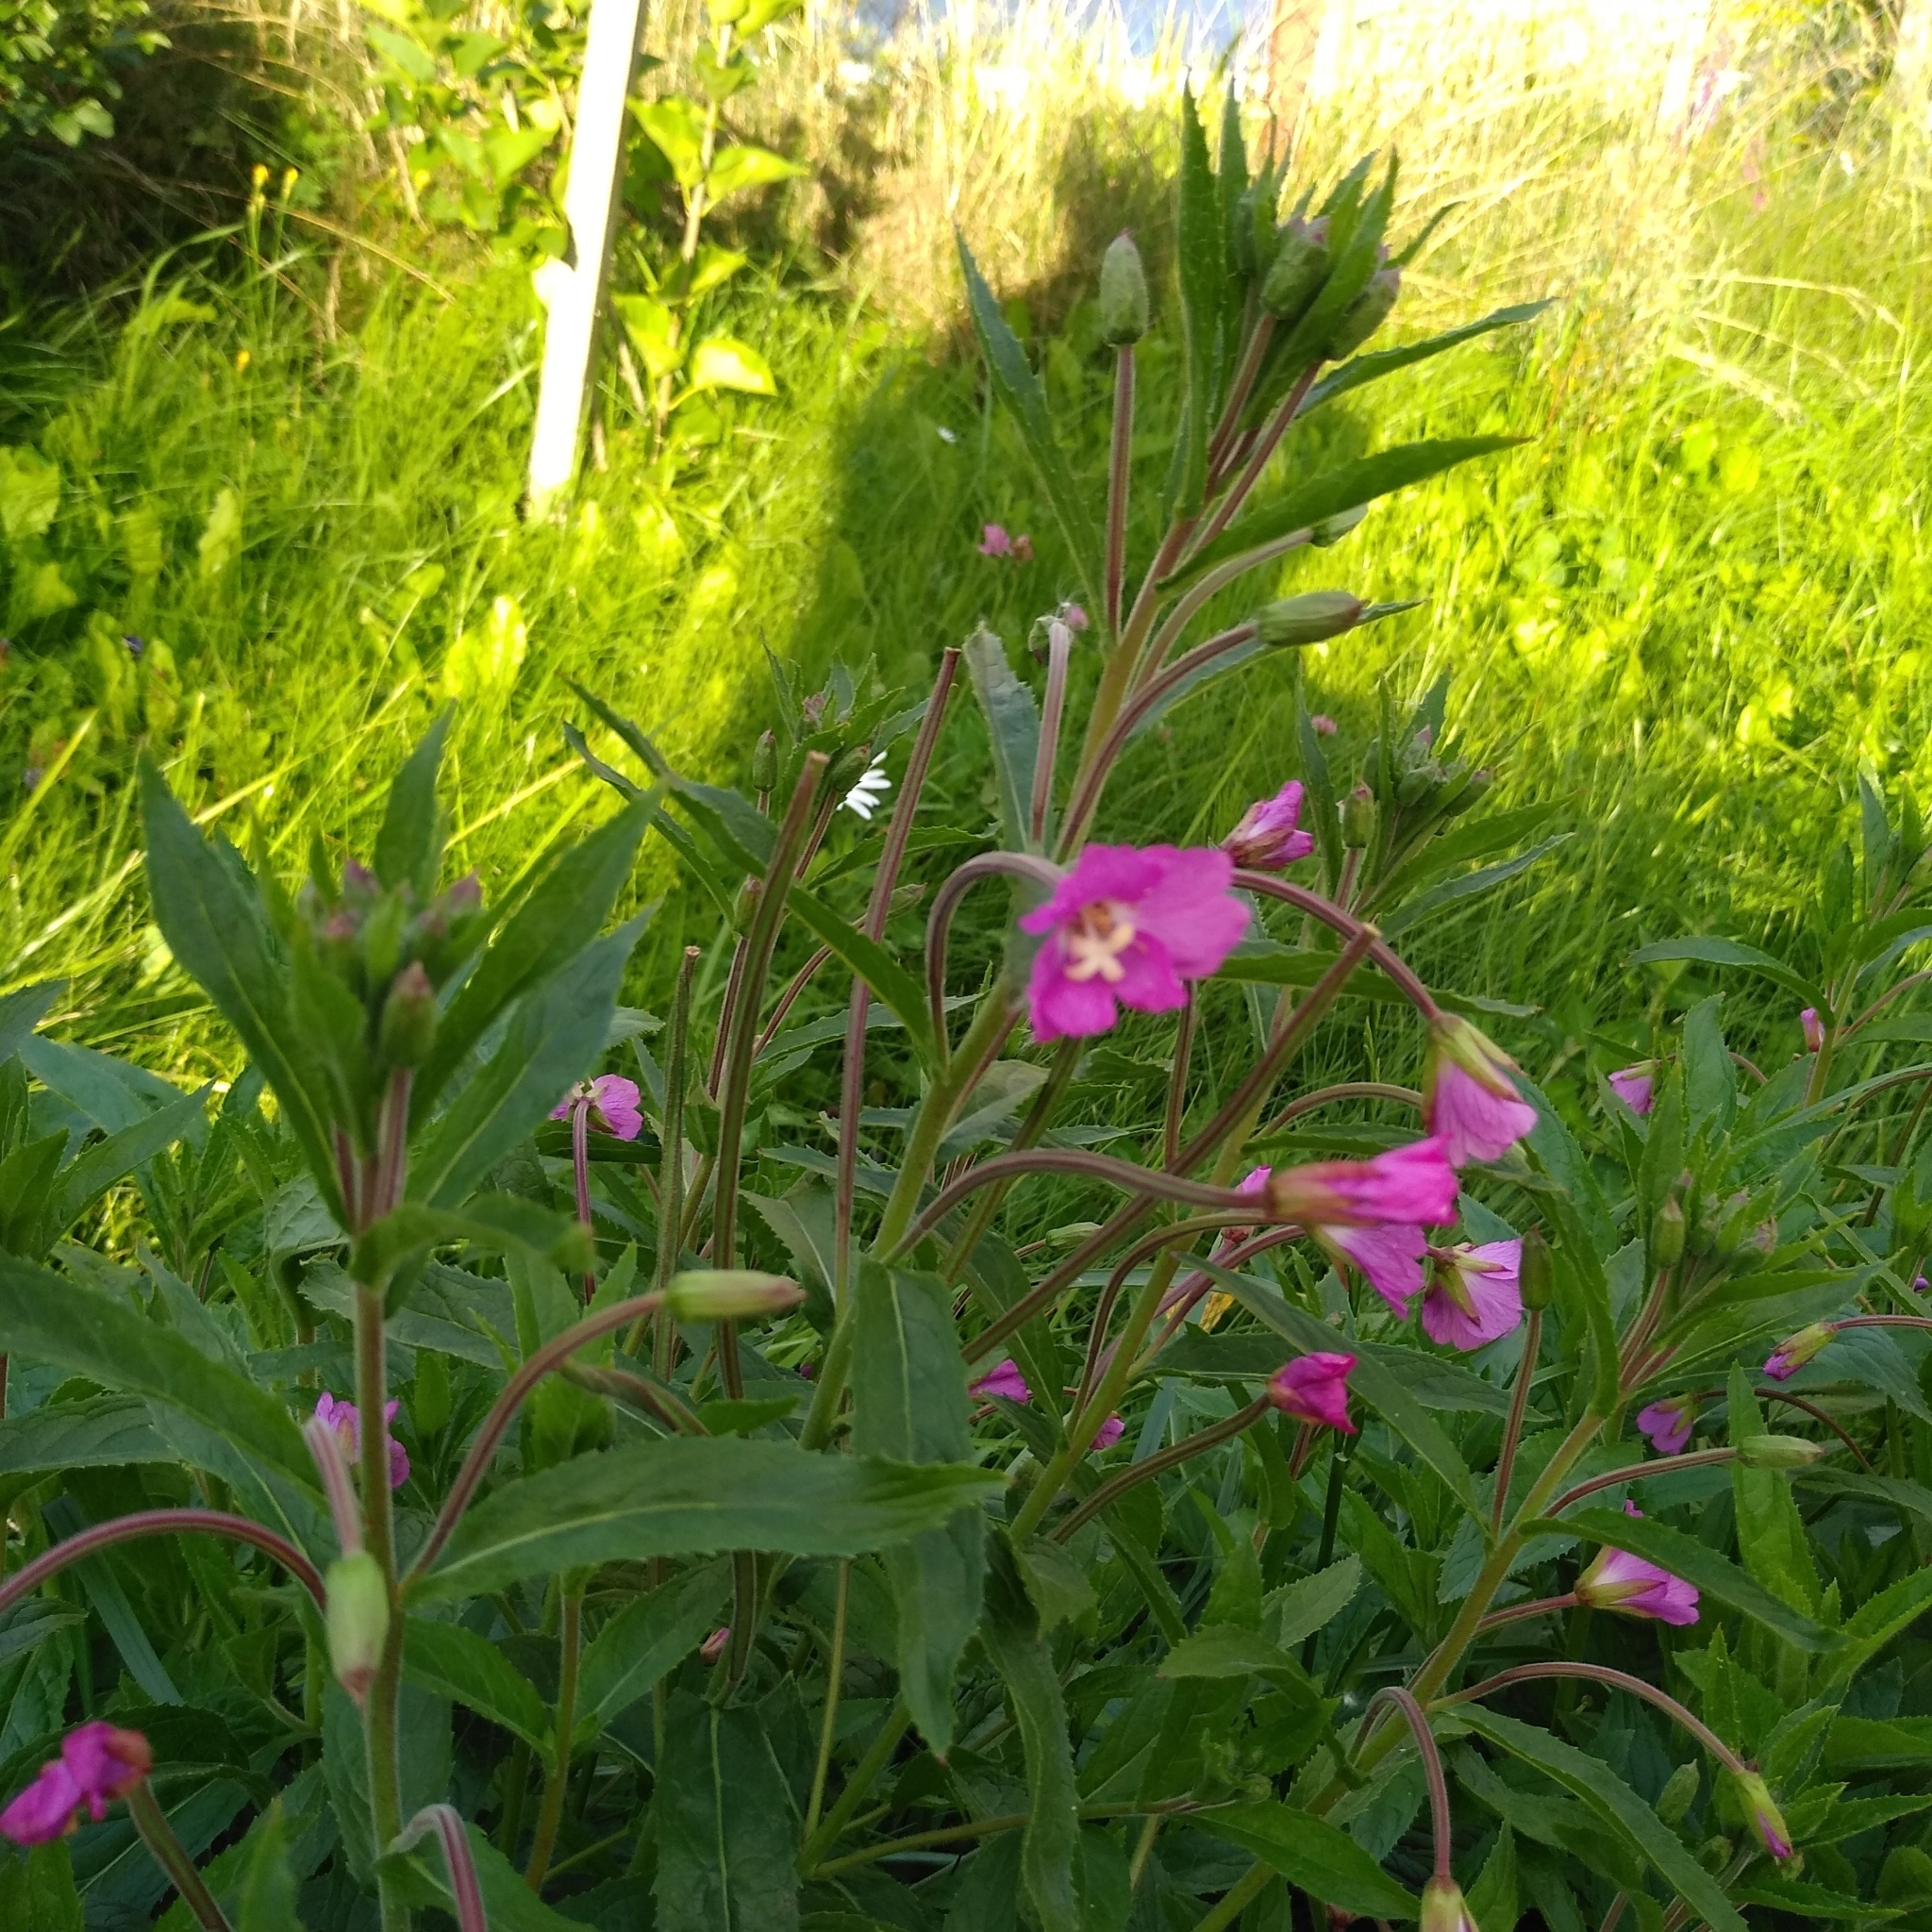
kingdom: Plantae
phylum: Tracheophyta
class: Magnoliopsida
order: Myrtales
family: Onagraceae
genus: Epilobium
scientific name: Epilobium hirsutum
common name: Great willowherb
